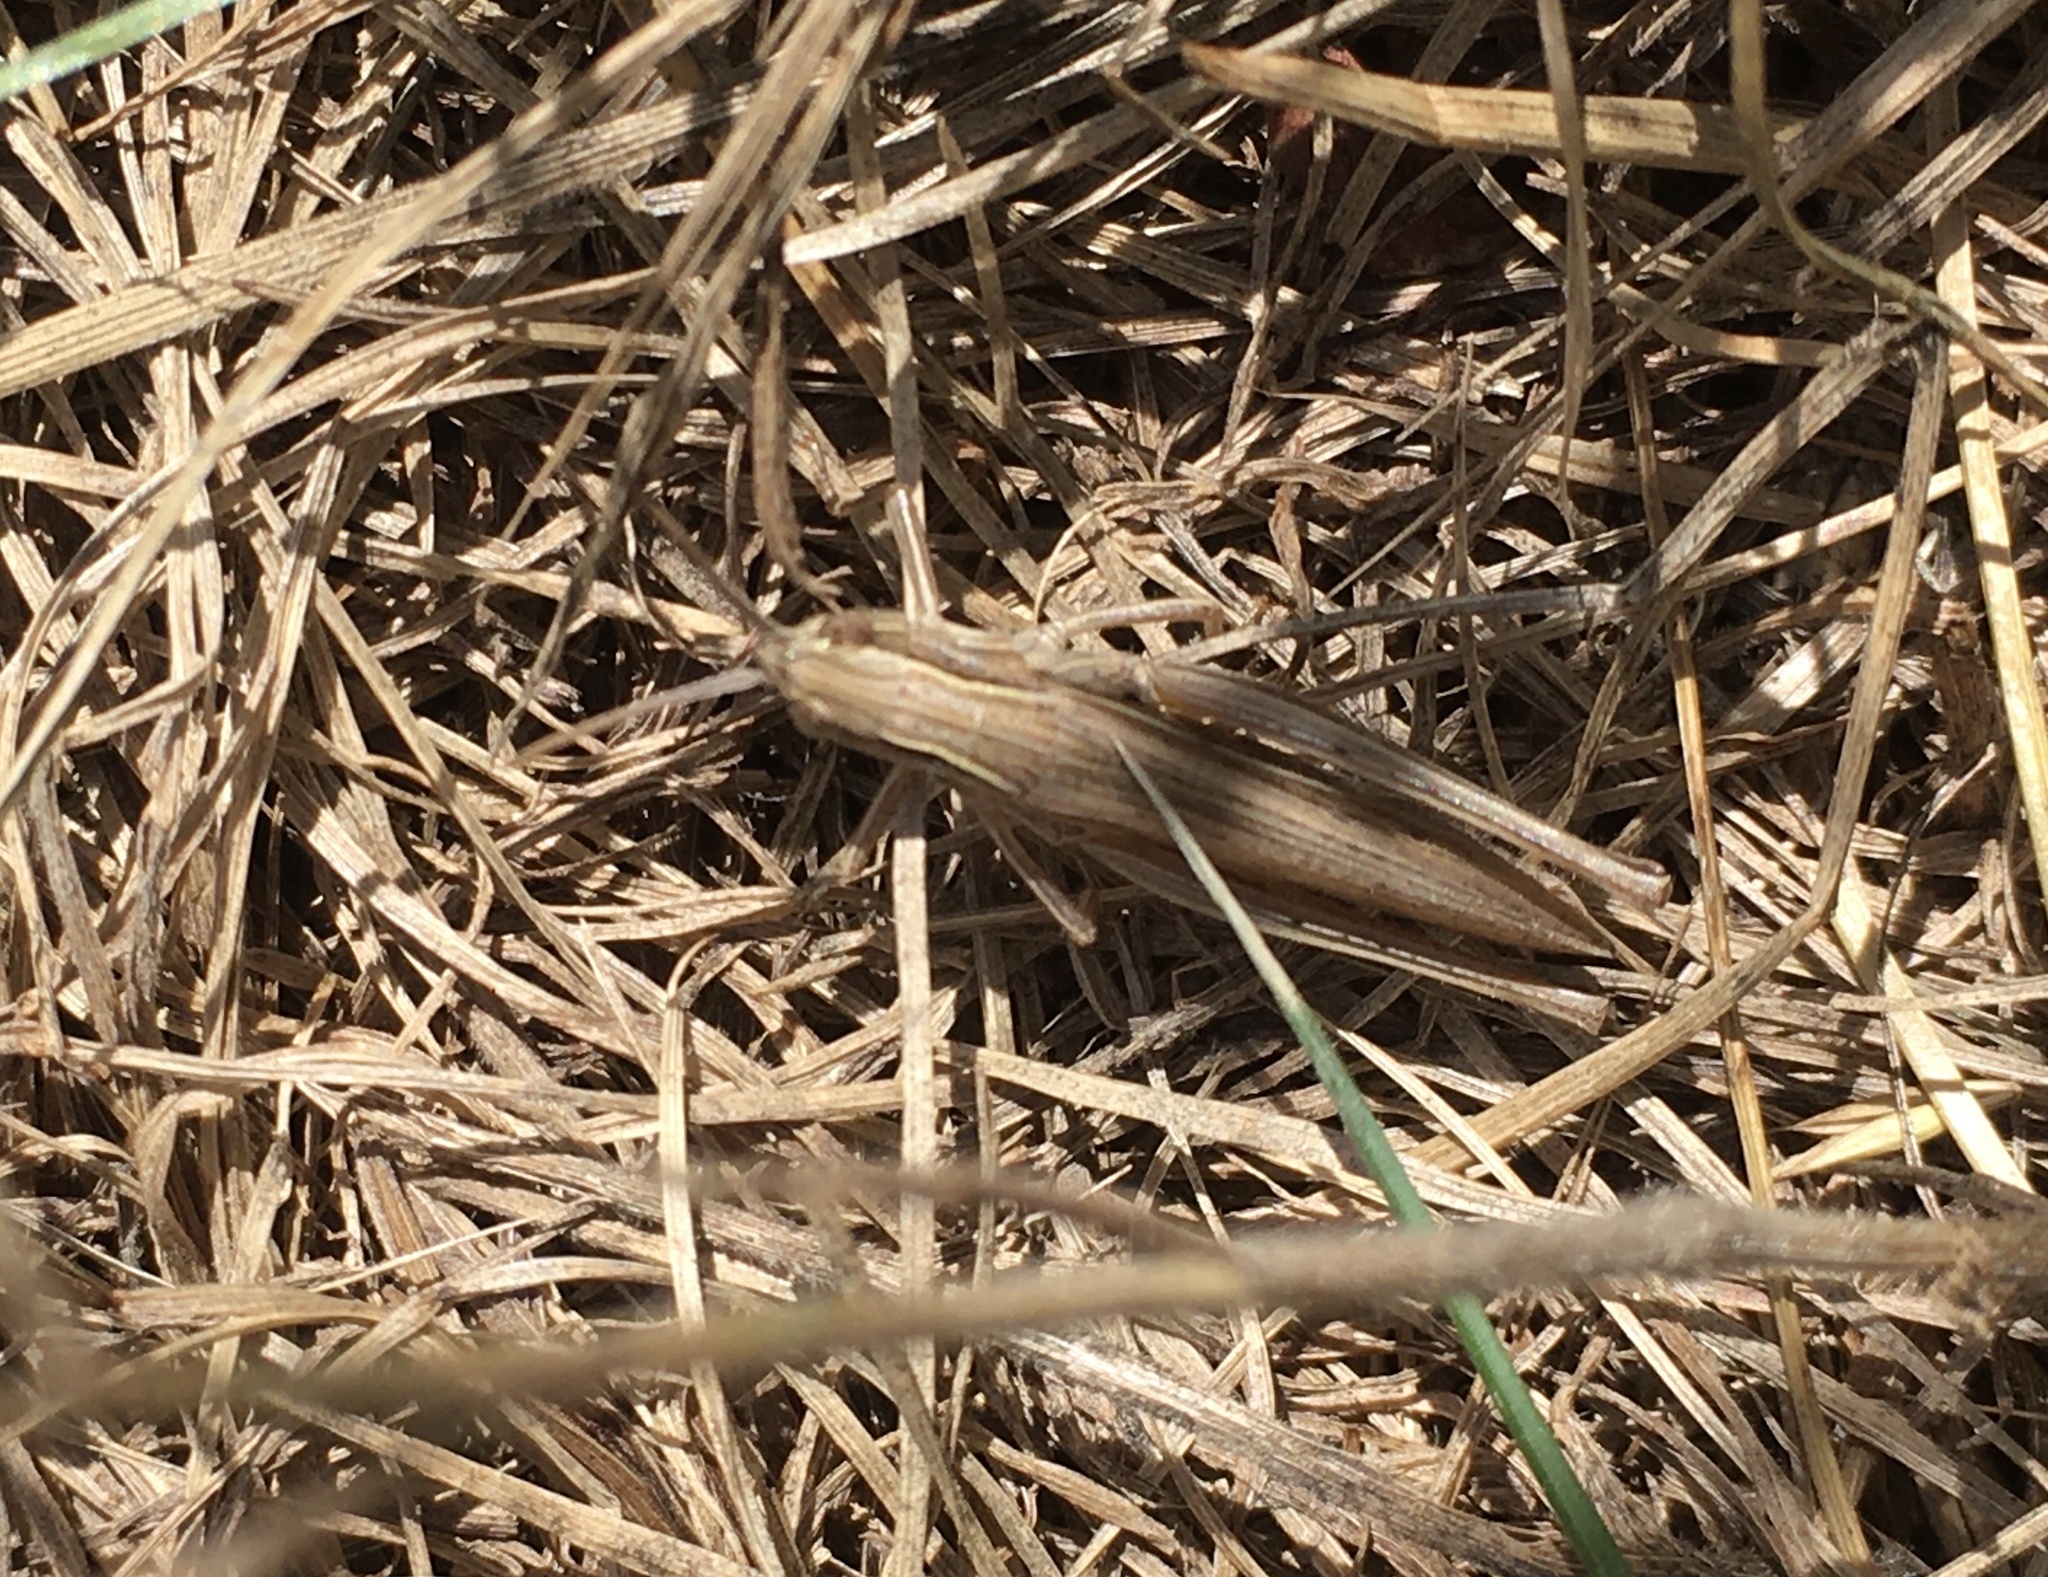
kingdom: Animalia
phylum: Arthropoda
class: Insecta
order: Orthoptera
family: Acrididae
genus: Chorthippus
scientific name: Chorthippus albomarginatus
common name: Lesser marsh grasshopper
